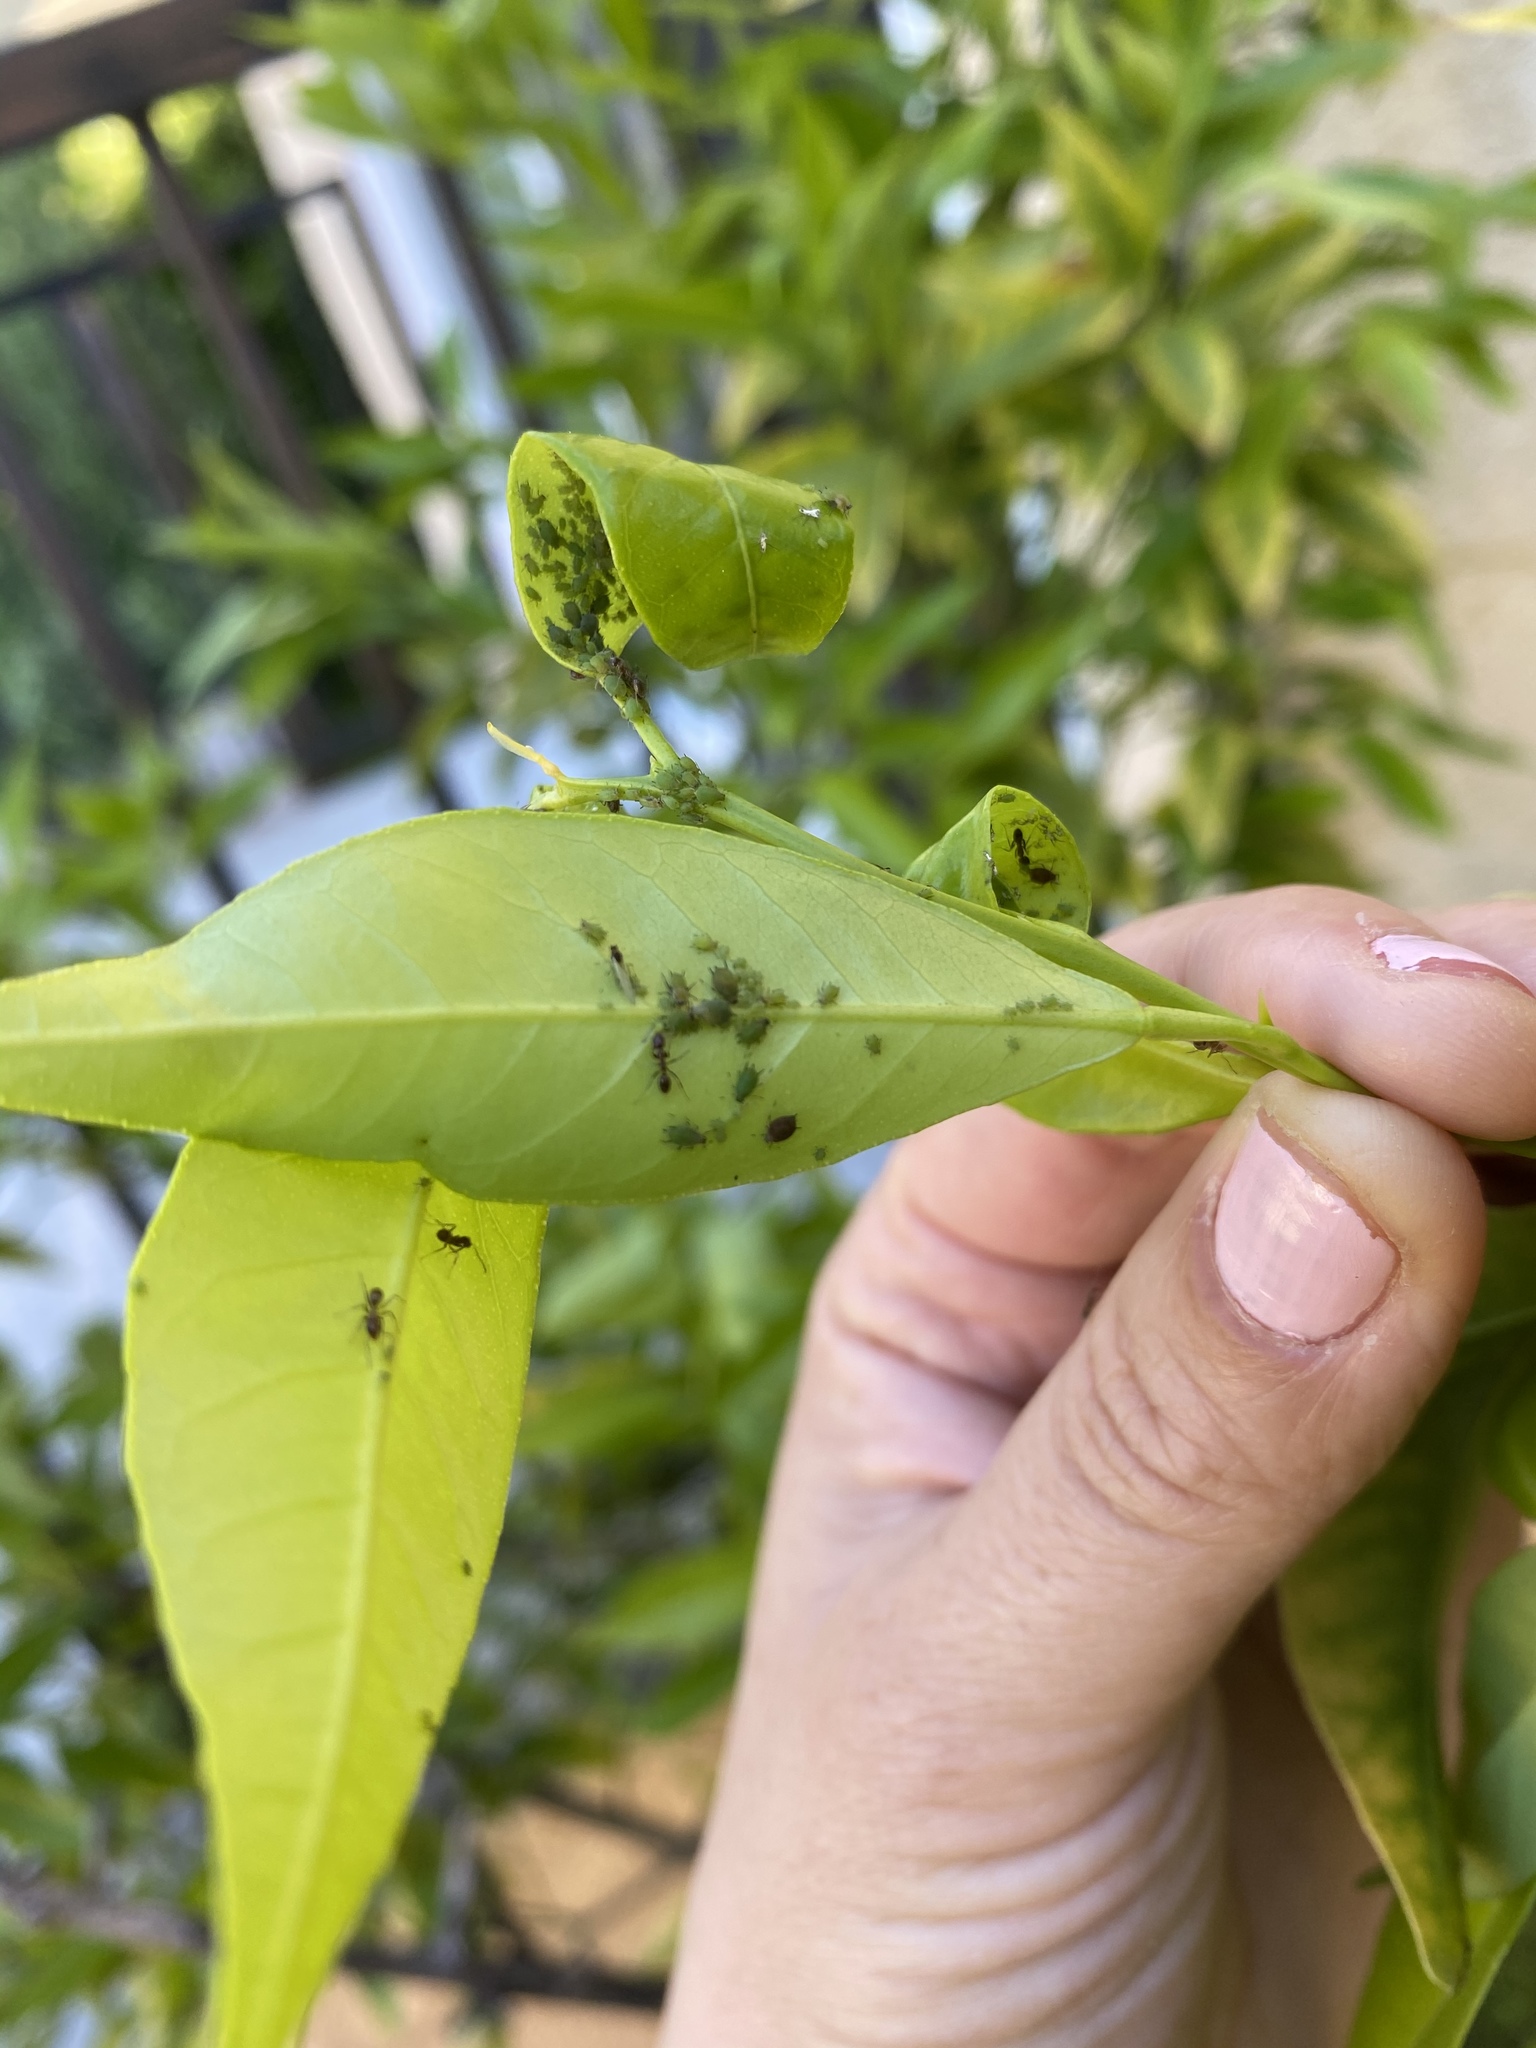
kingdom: Animalia
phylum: Arthropoda
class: Insecta
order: Hymenoptera
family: Formicidae
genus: Linepithema
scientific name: Linepithema humile
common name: Argentine ant
